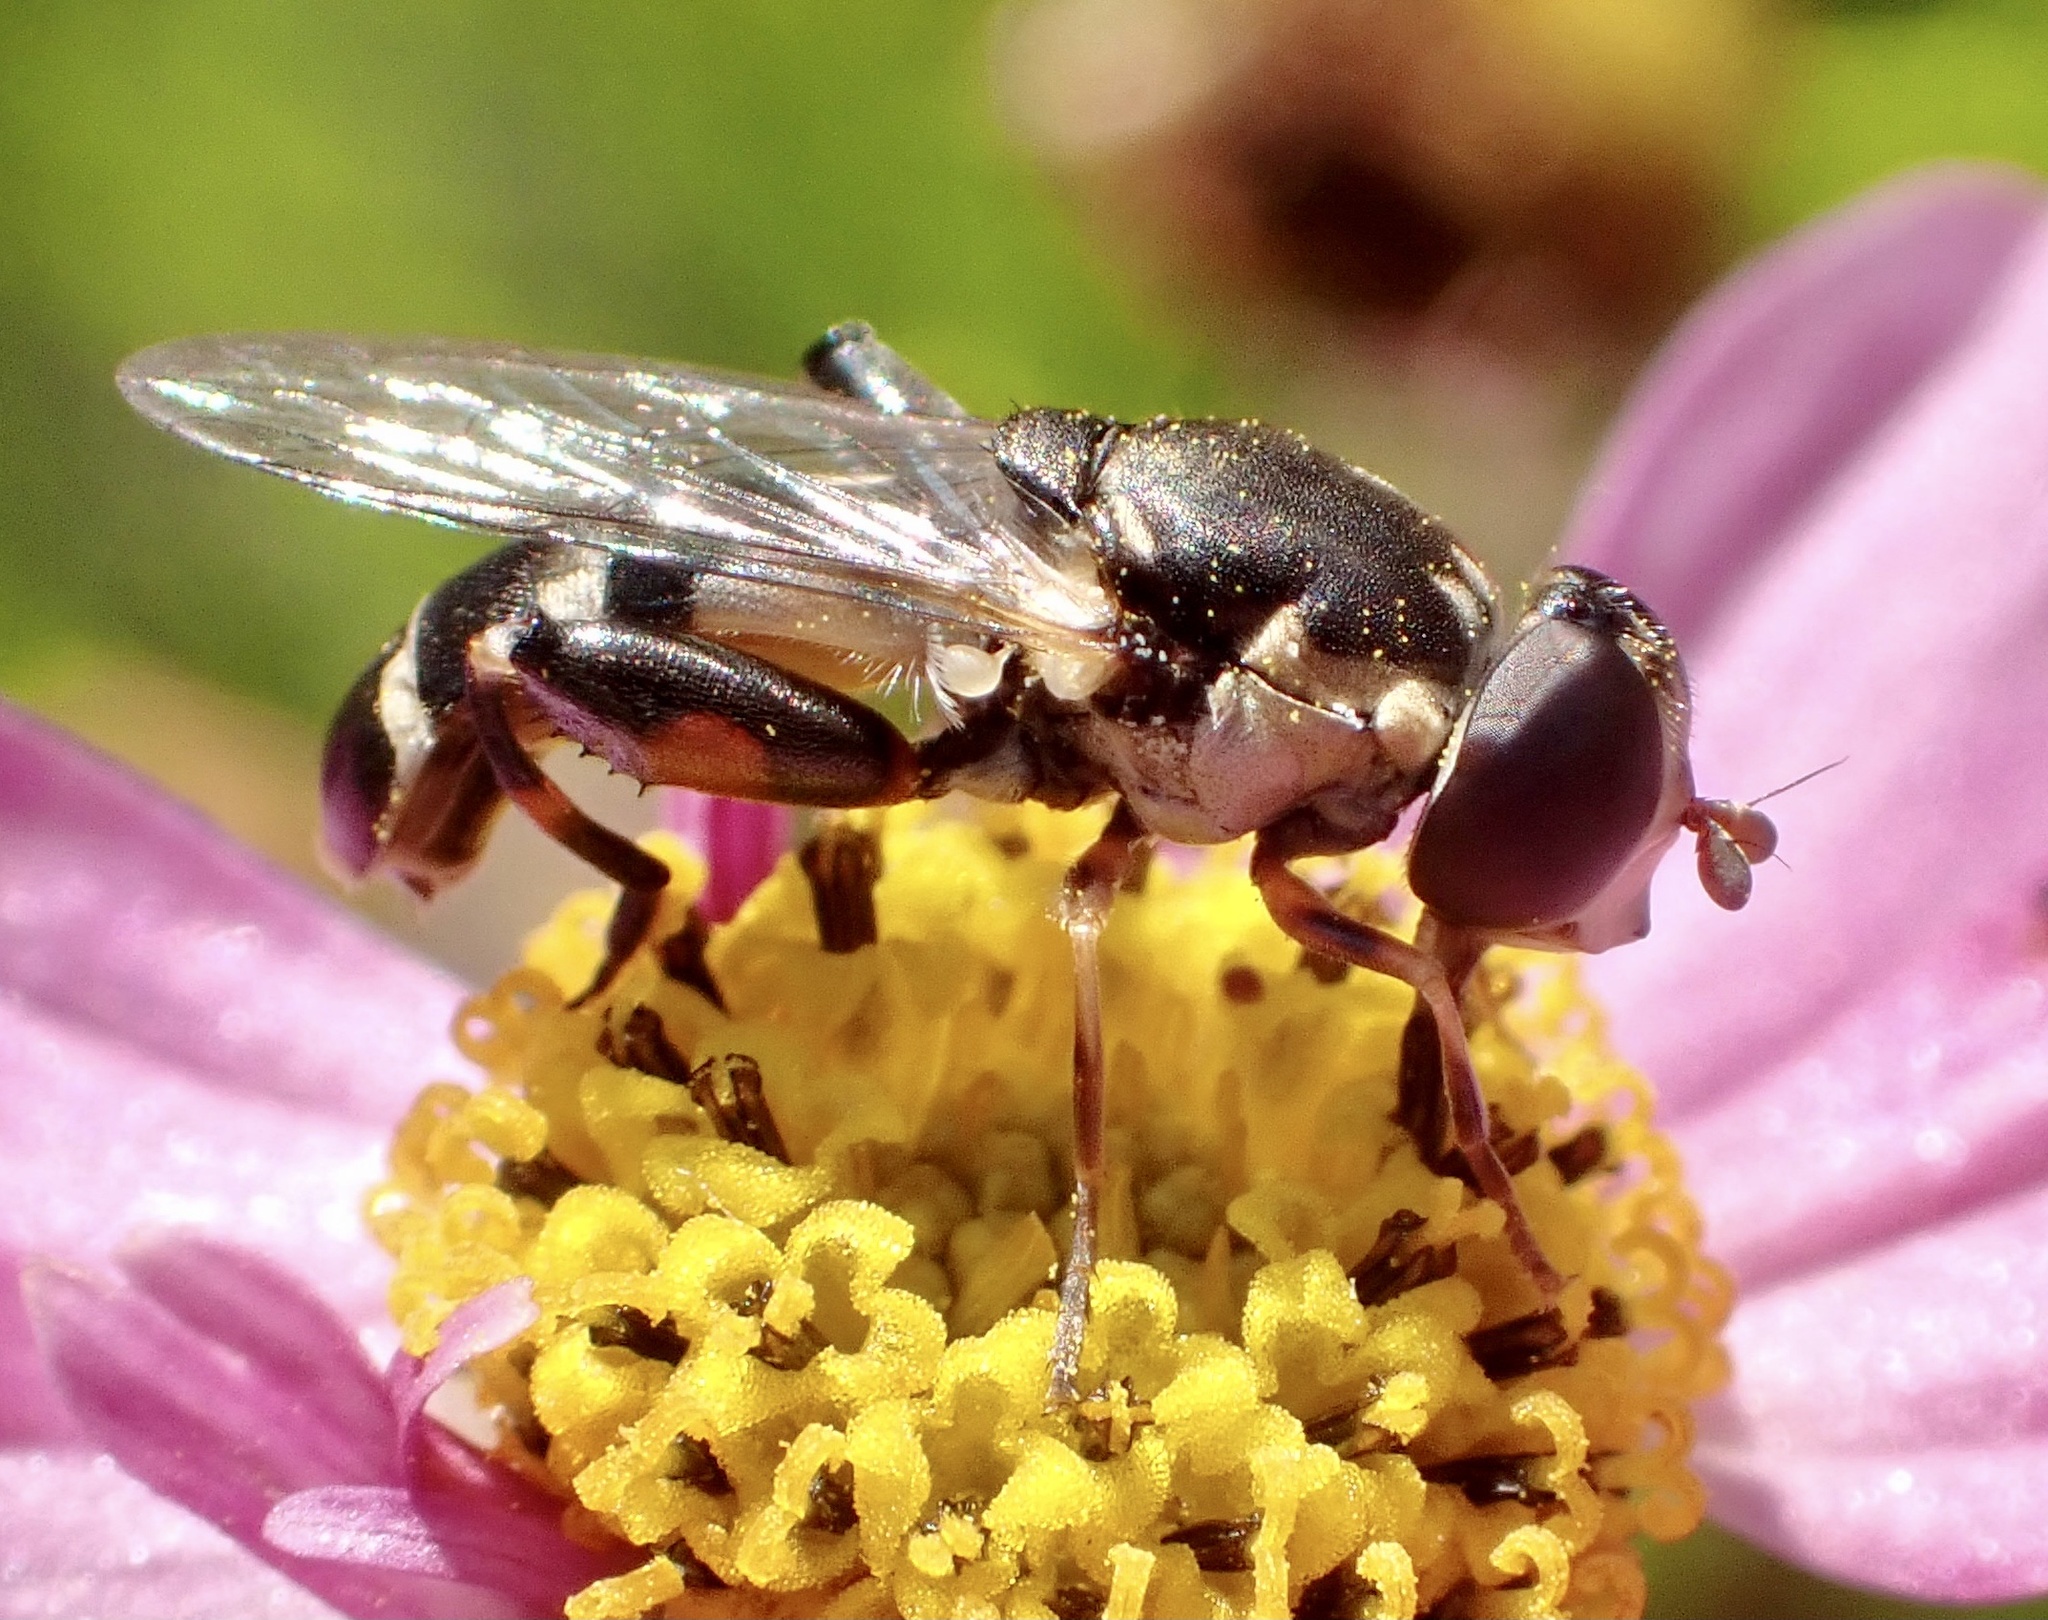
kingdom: Animalia
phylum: Arthropoda
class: Insecta
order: Diptera
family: Syrphidae
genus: Syritta
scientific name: Syritta pipiens
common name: Hover fly
